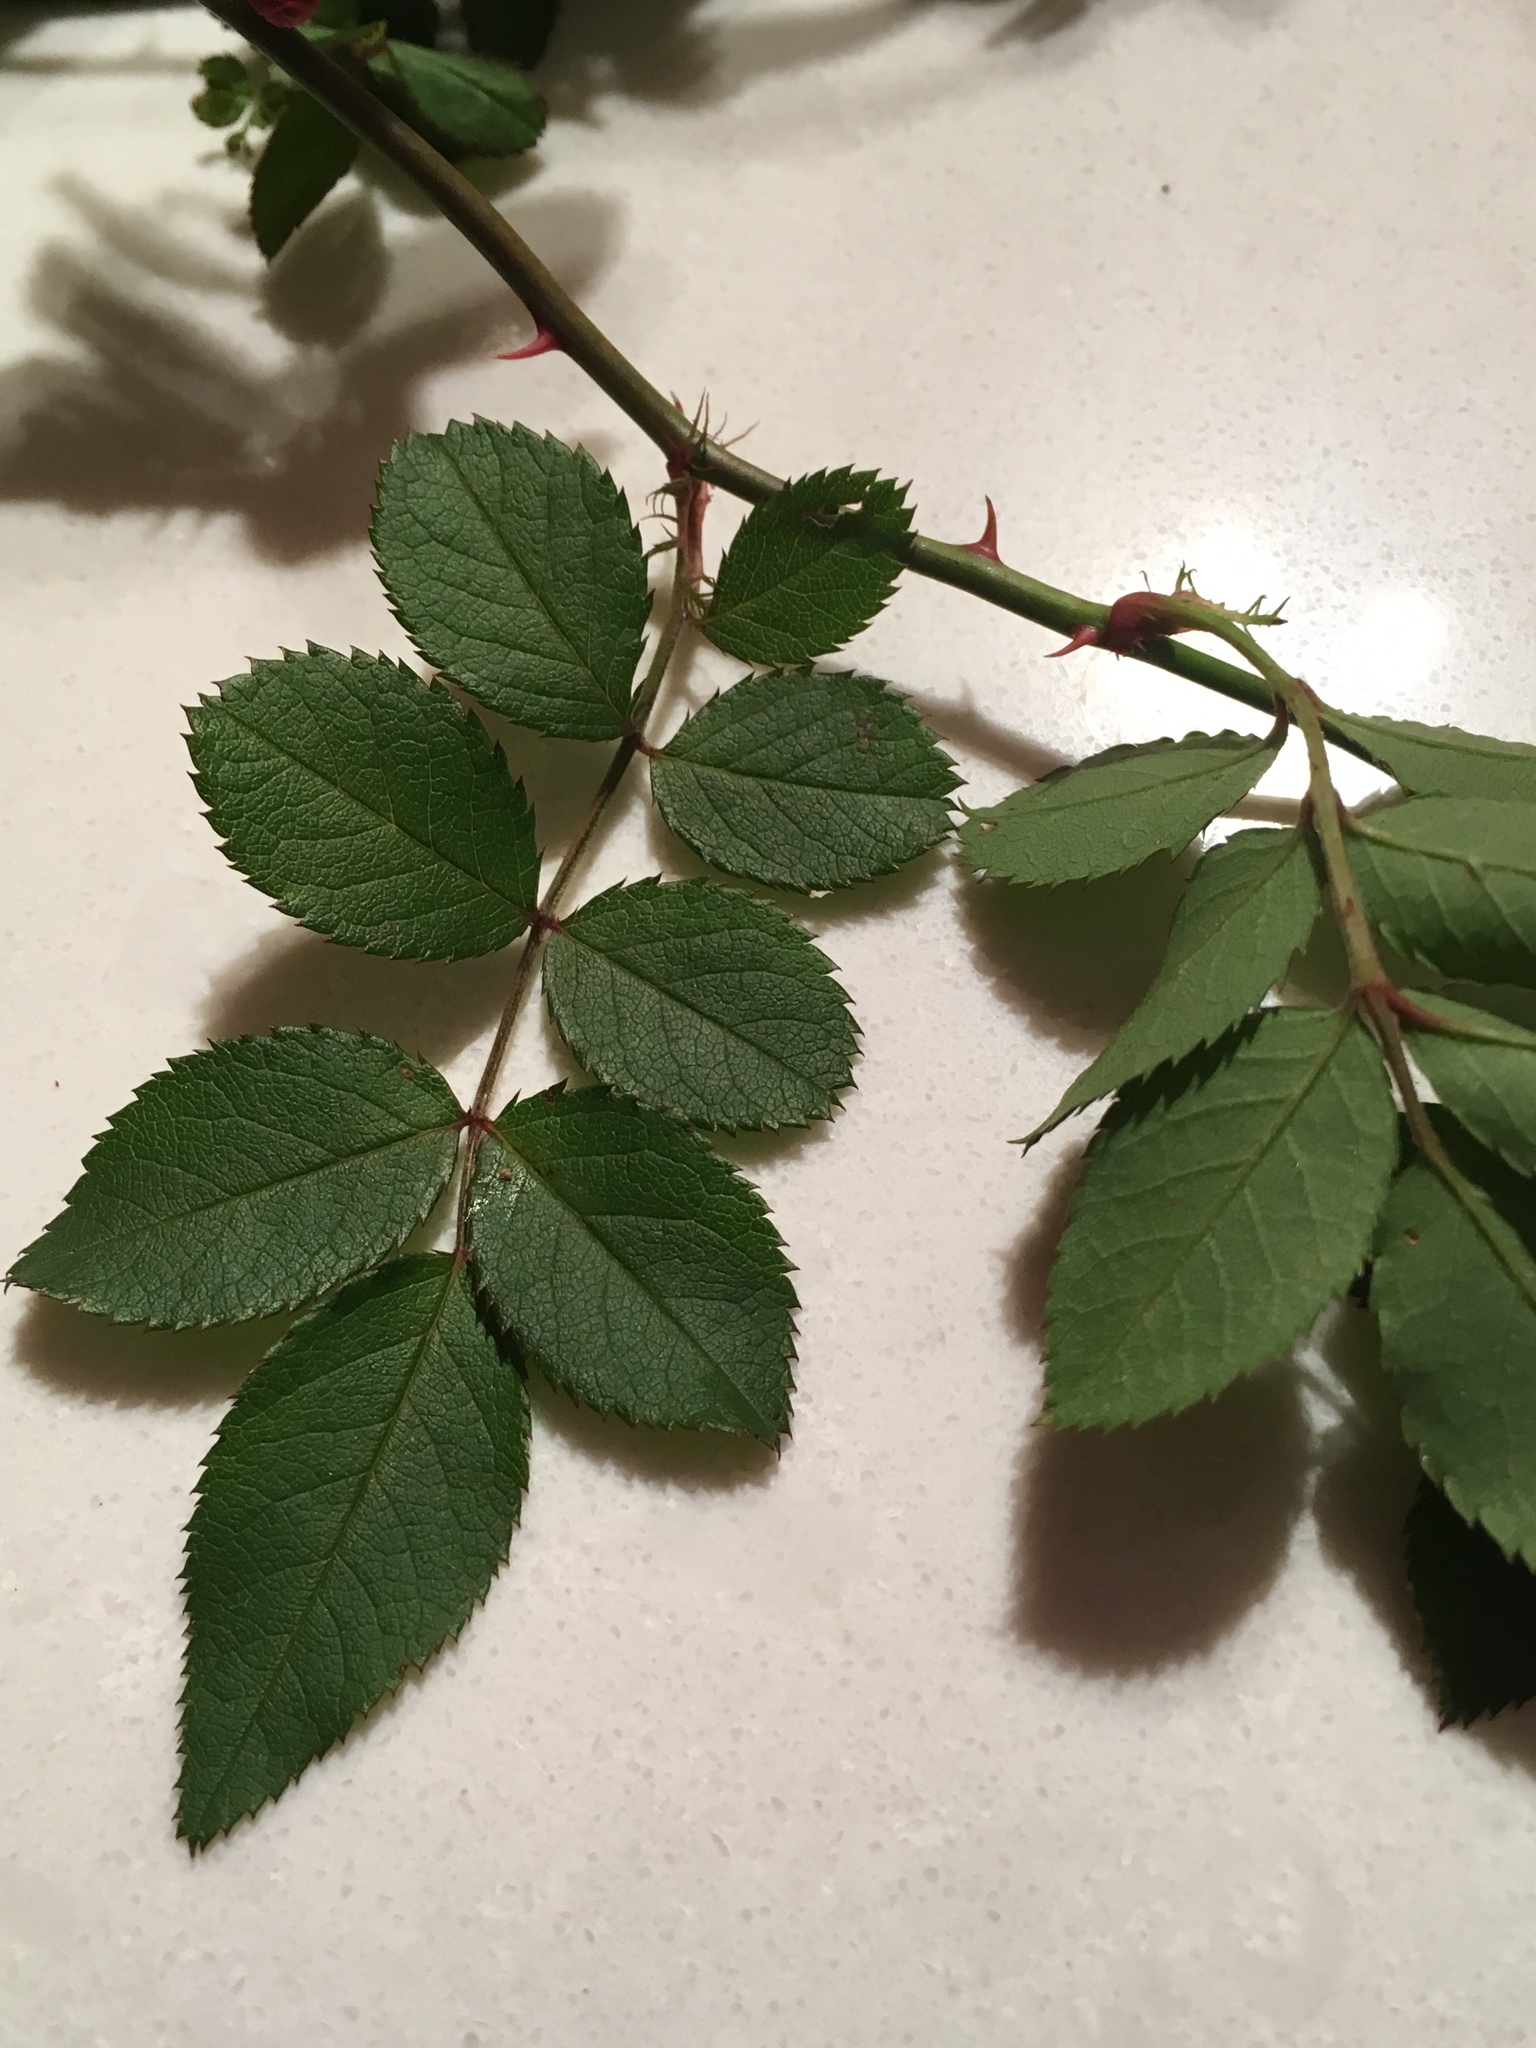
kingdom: Plantae
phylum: Tracheophyta
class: Magnoliopsida
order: Rosales
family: Rosaceae
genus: Rosa
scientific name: Rosa multiflora
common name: Multiflora rose
